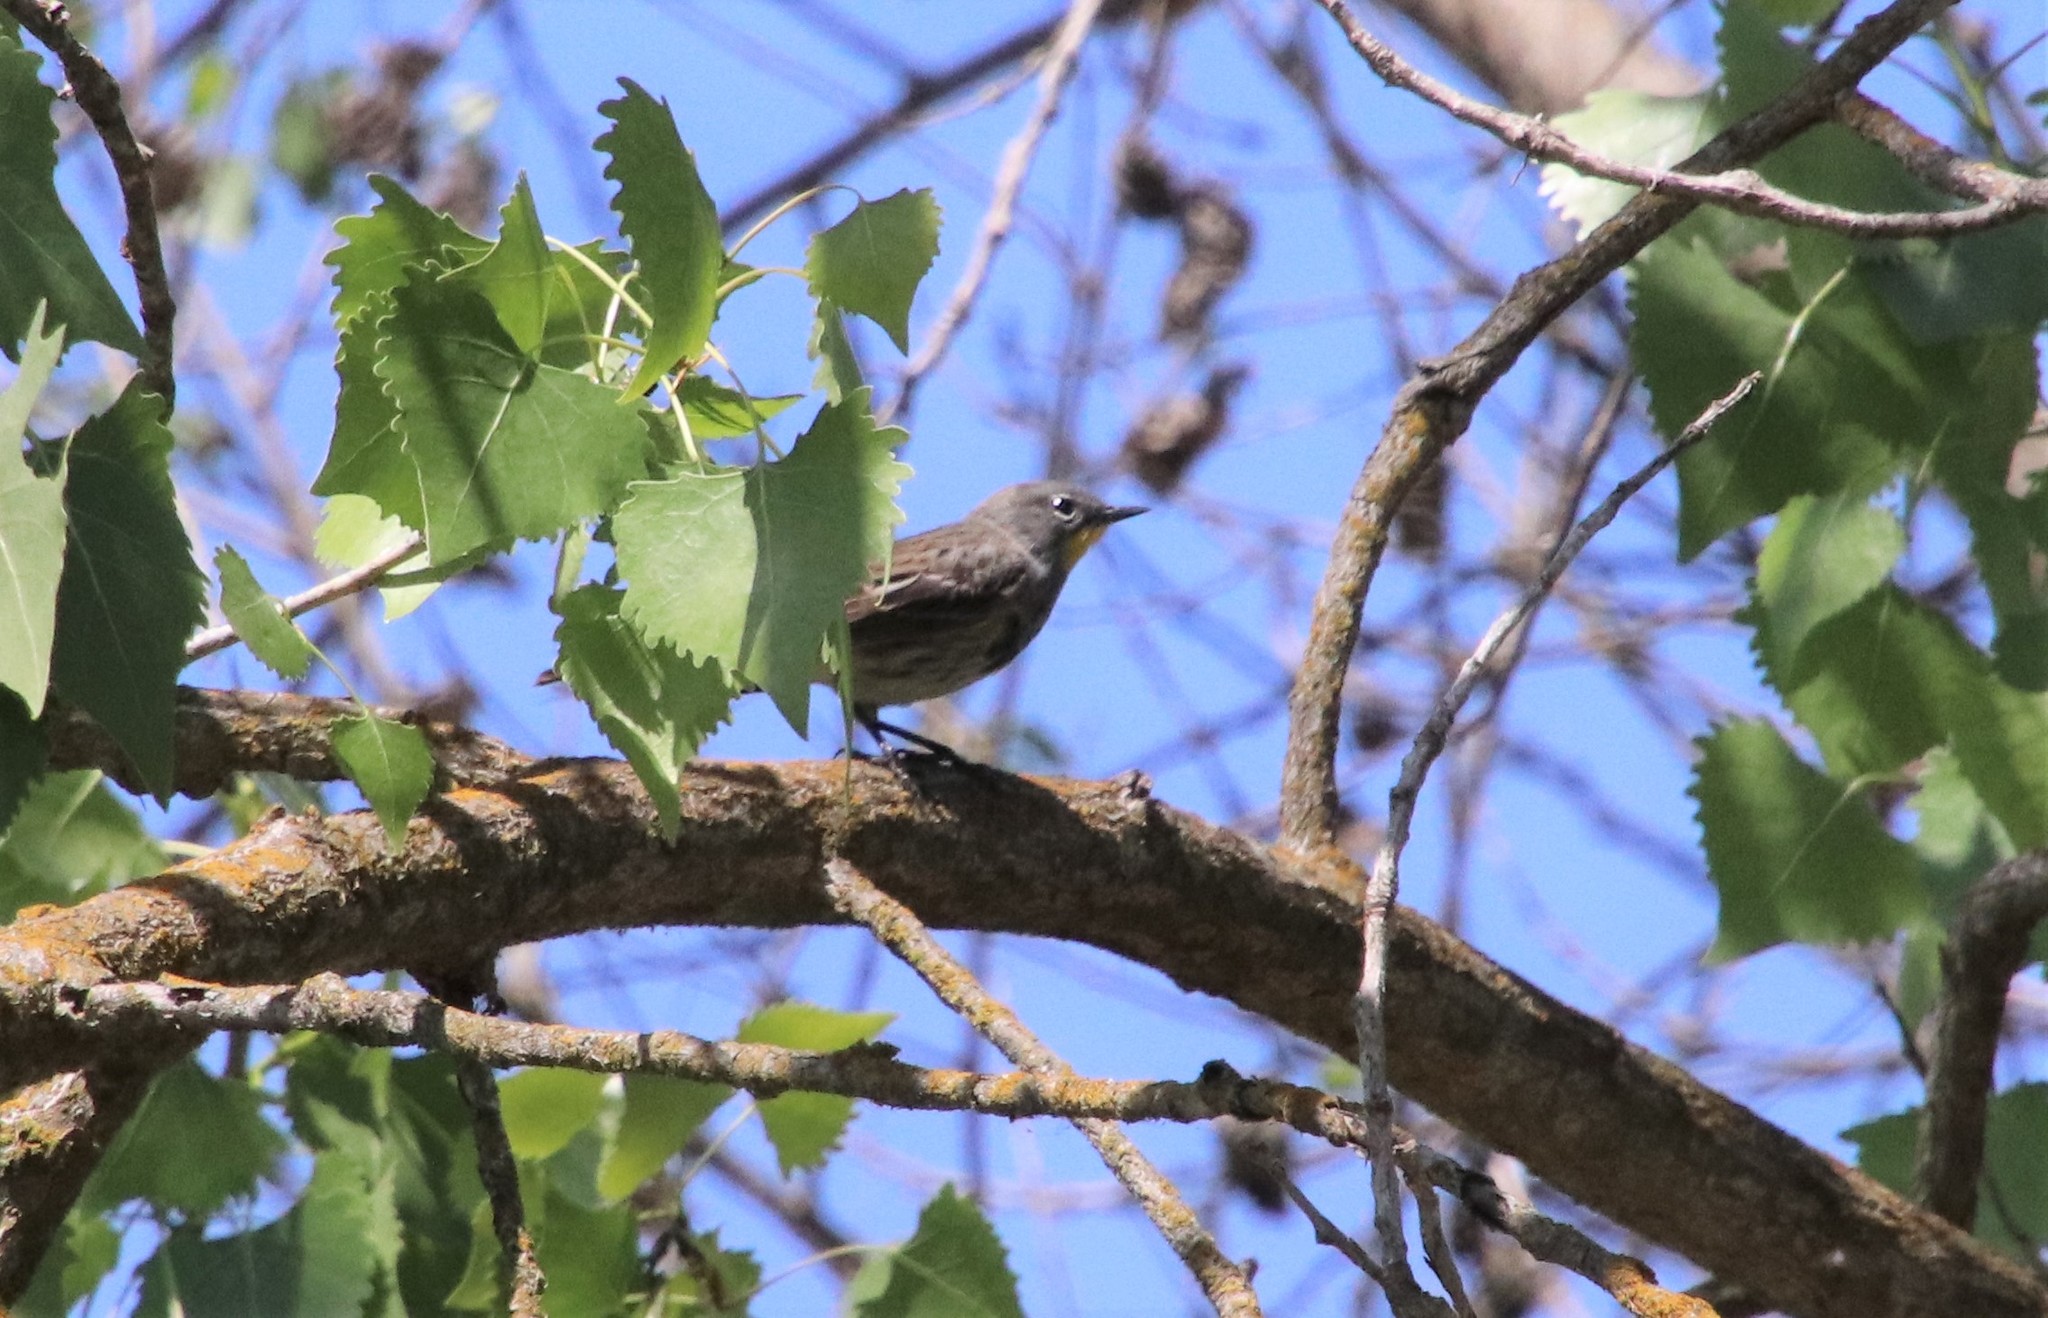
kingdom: Animalia
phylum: Chordata
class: Aves
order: Passeriformes
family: Parulidae
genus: Setophaga
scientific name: Setophaga auduboni
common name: Audubon's warbler
